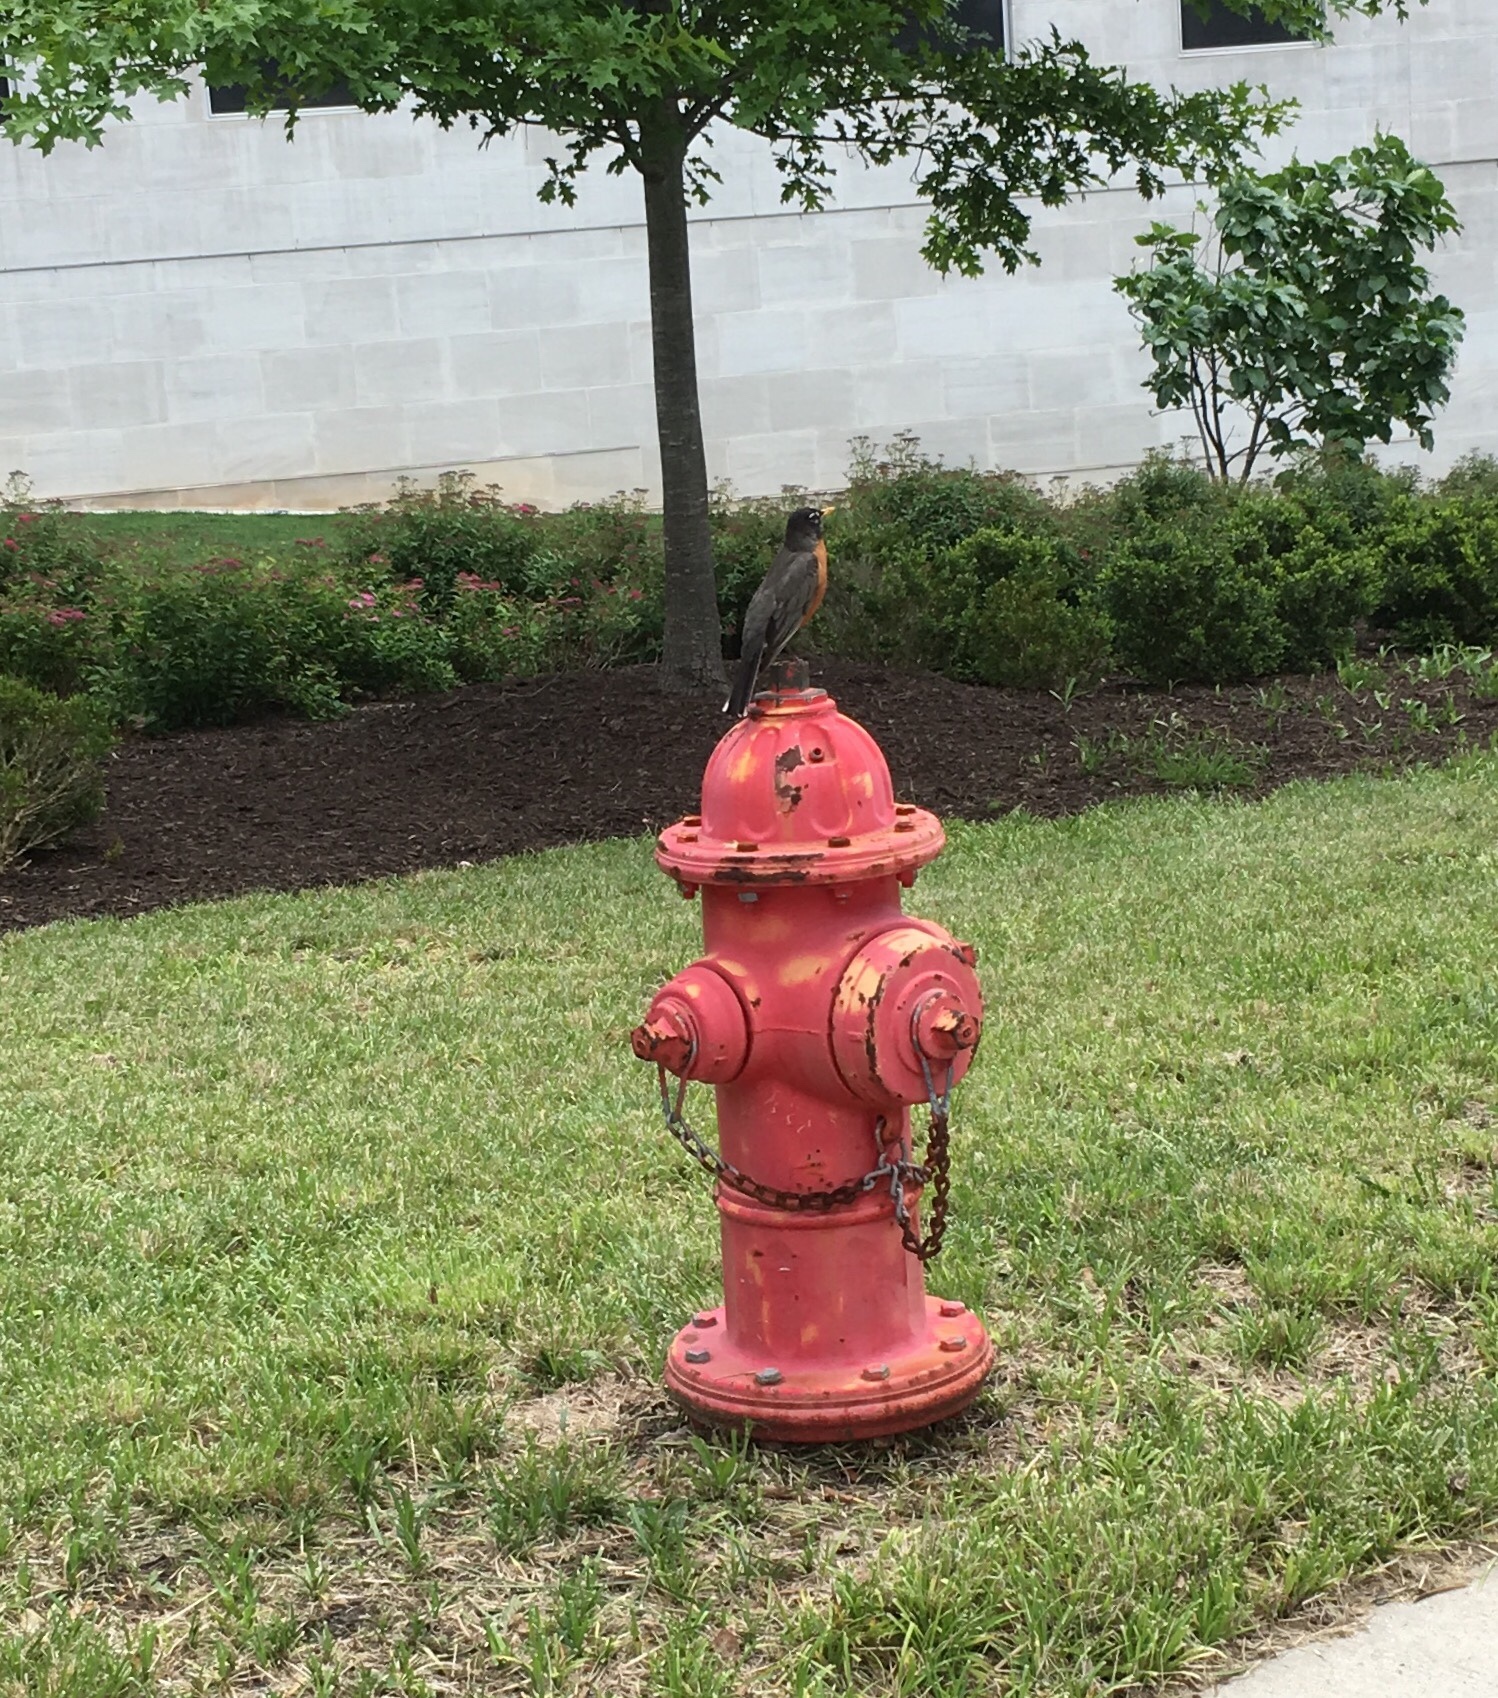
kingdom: Animalia
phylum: Chordata
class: Aves
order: Passeriformes
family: Turdidae
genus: Turdus
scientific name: Turdus migratorius
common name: American robin
